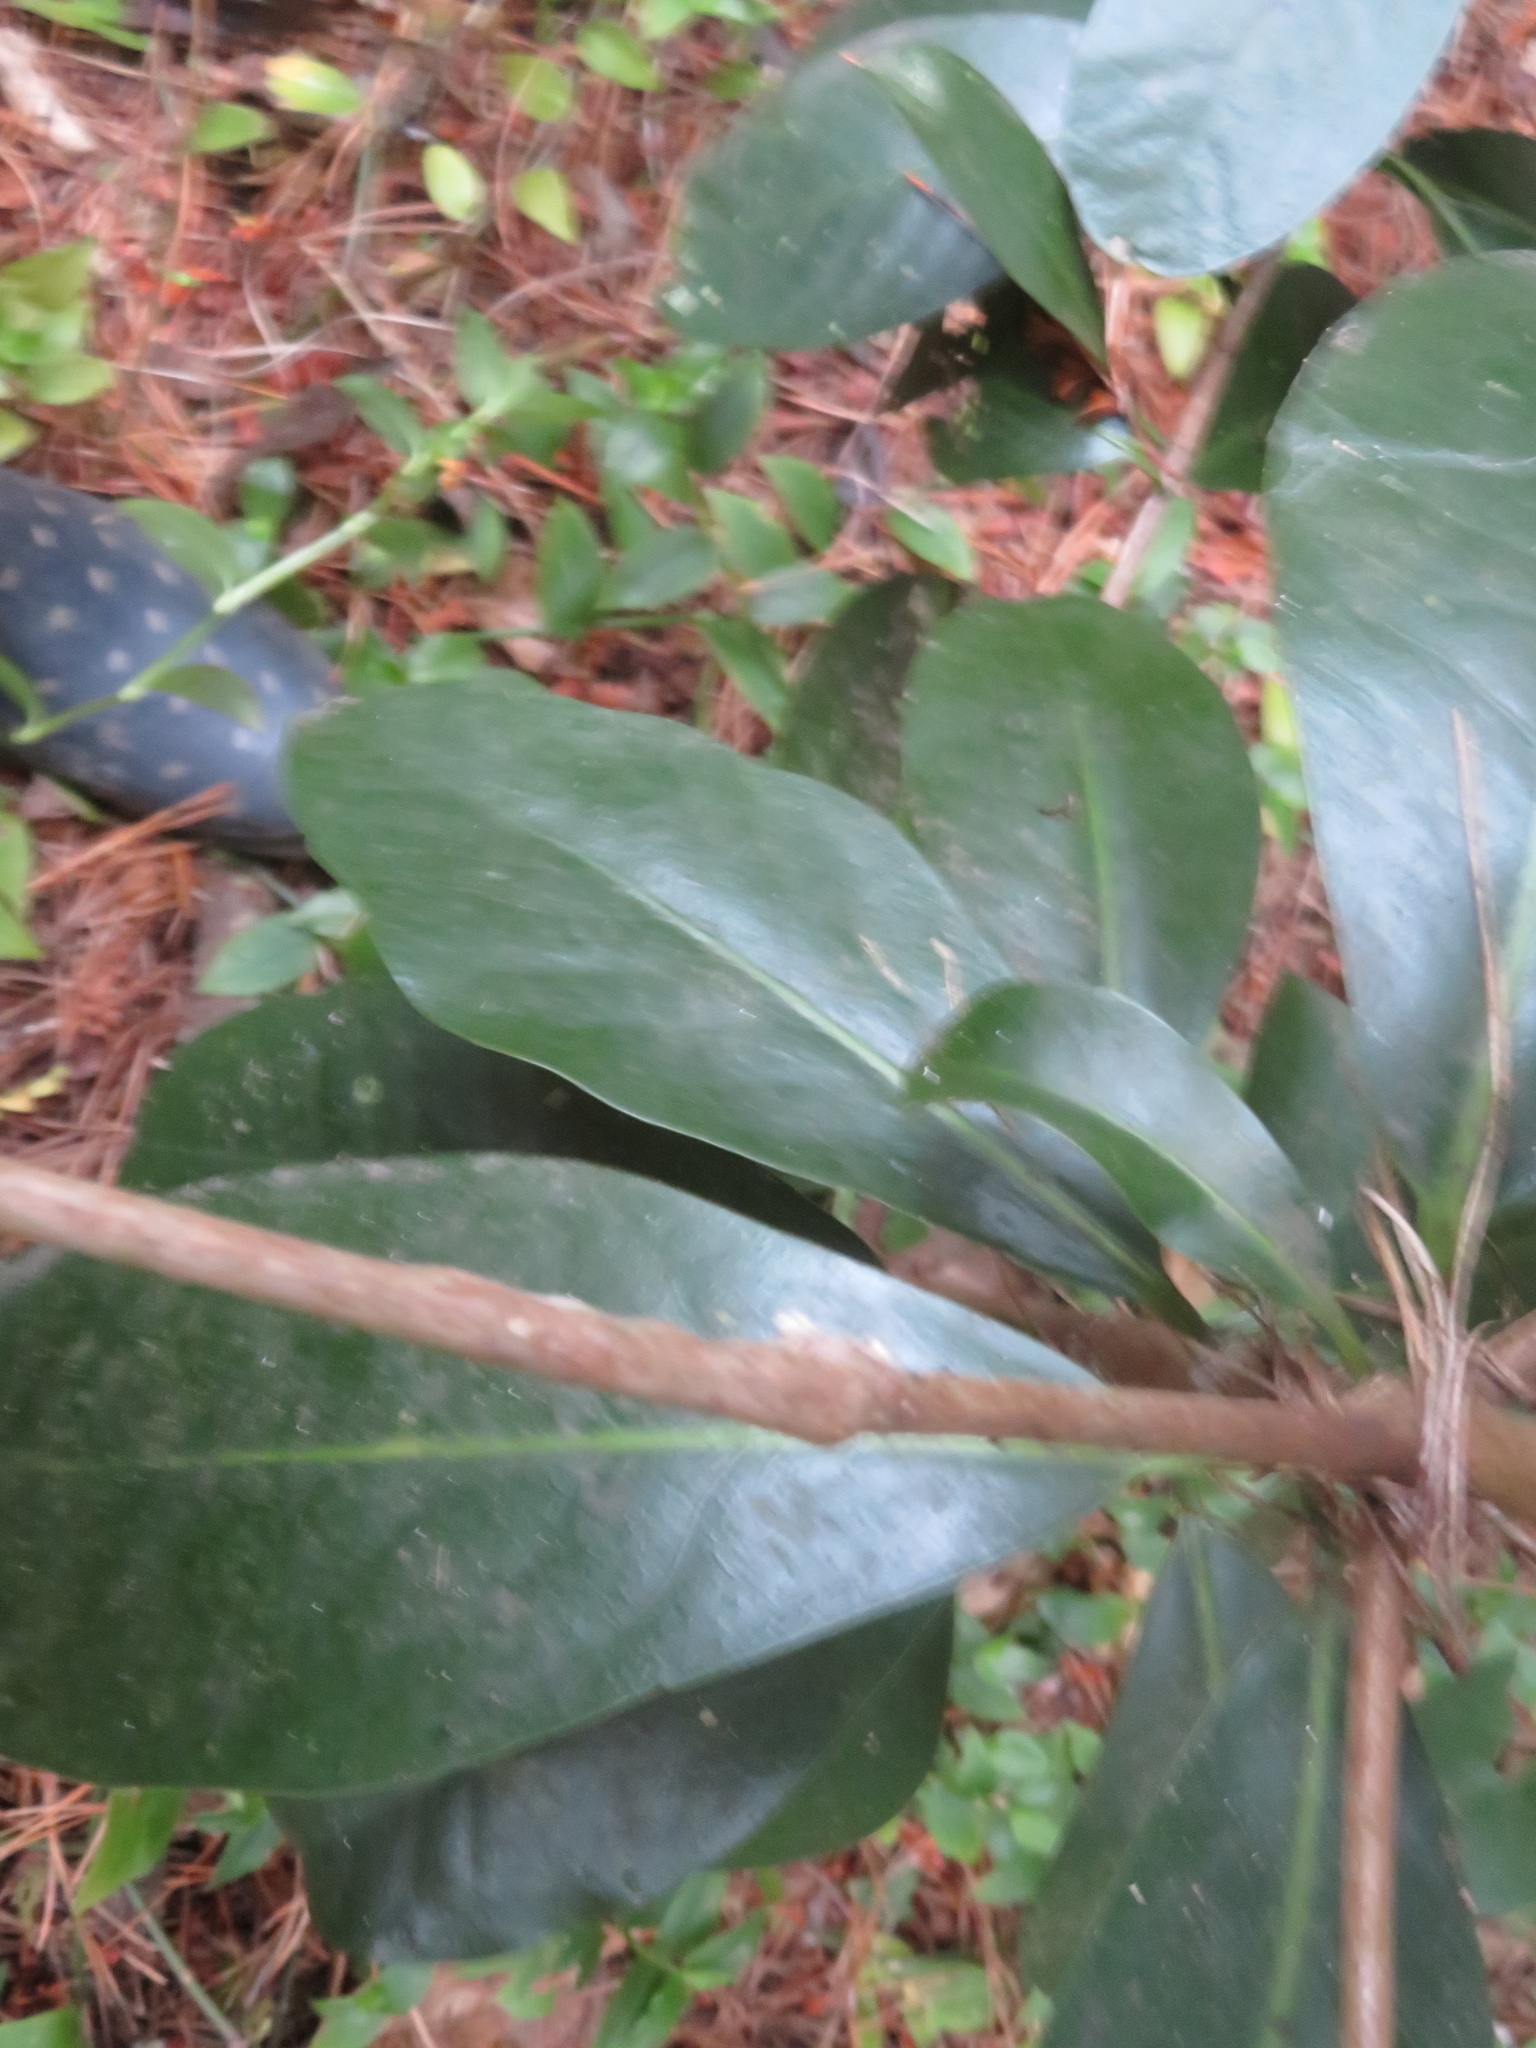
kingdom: Plantae
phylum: Tracheophyta
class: Magnoliopsida
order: Cucurbitales
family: Corynocarpaceae
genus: Corynocarpus
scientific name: Corynocarpus laevigatus
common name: New zealand laurel
